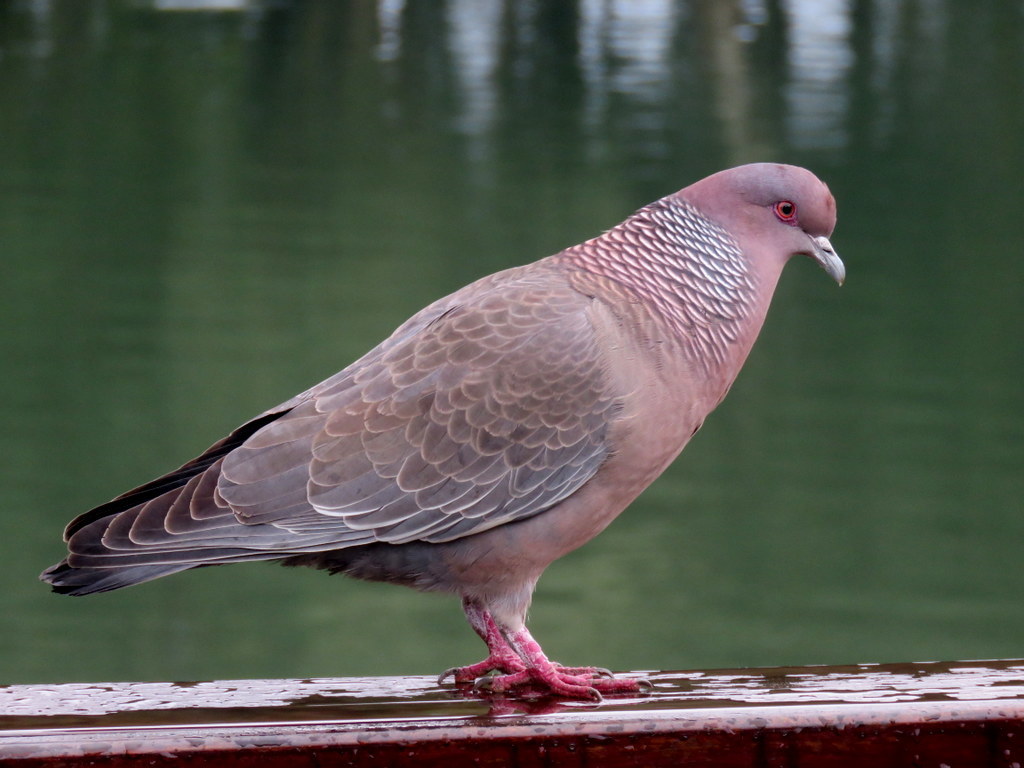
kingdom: Animalia
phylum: Chordata
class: Aves
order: Columbiformes
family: Columbidae
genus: Patagioenas
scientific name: Patagioenas picazuro
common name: Picazuro pigeon
